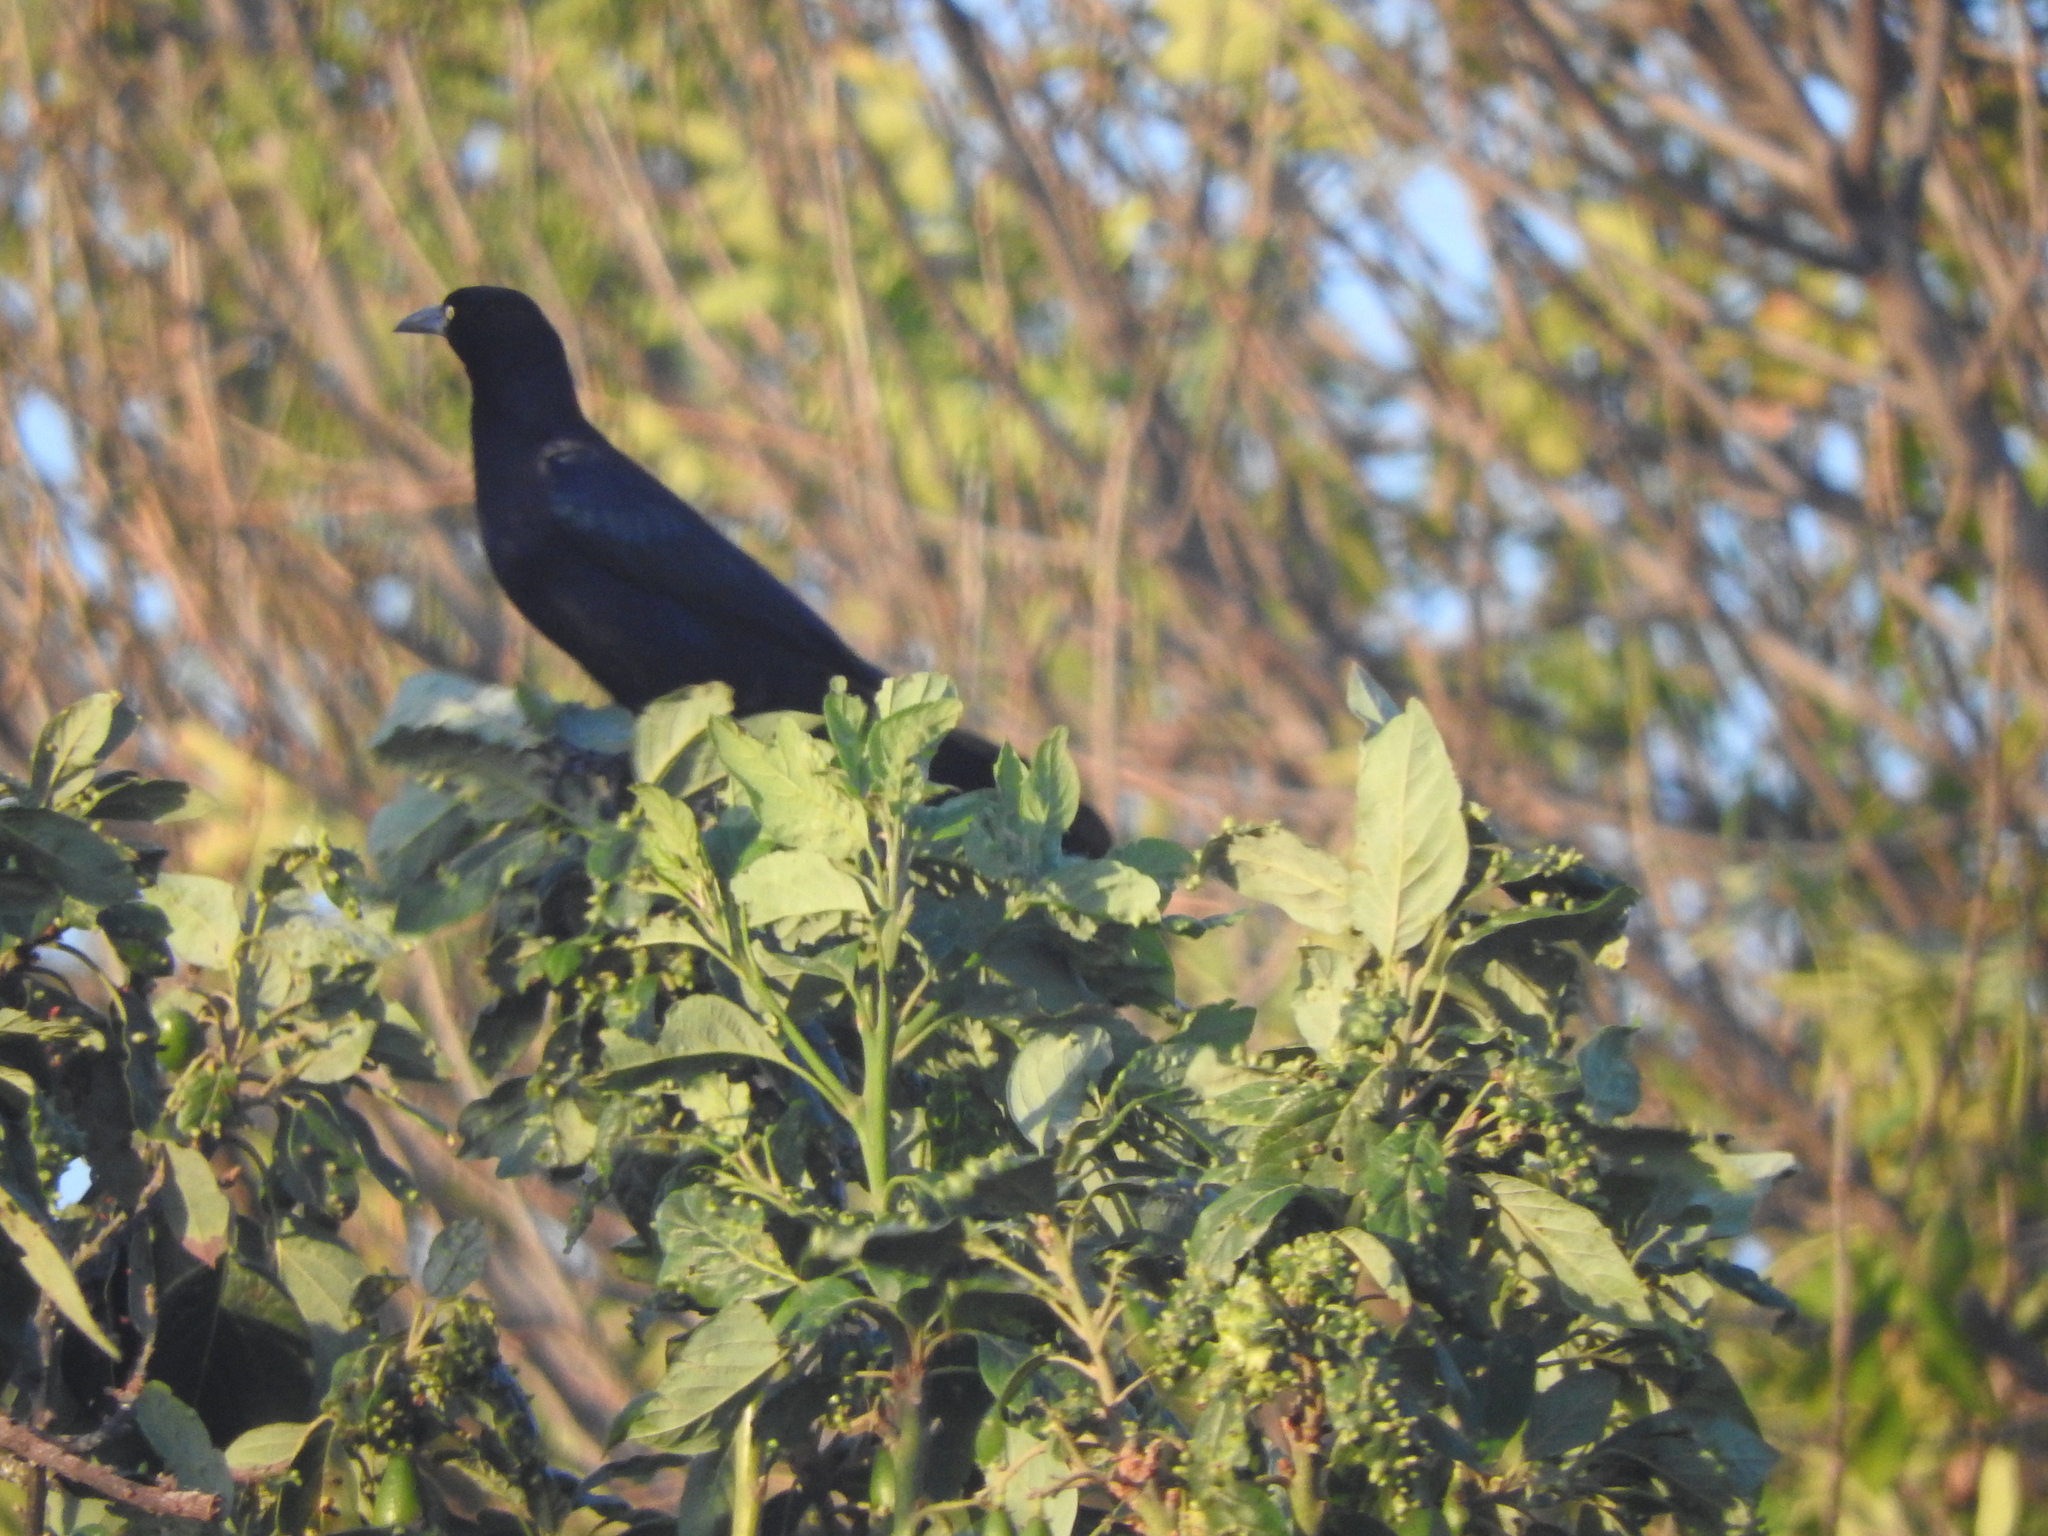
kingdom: Animalia
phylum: Chordata
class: Aves
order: Passeriformes
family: Icteridae
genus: Quiscalus
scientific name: Quiscalus mexicanus
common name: Great-tailed grackle
